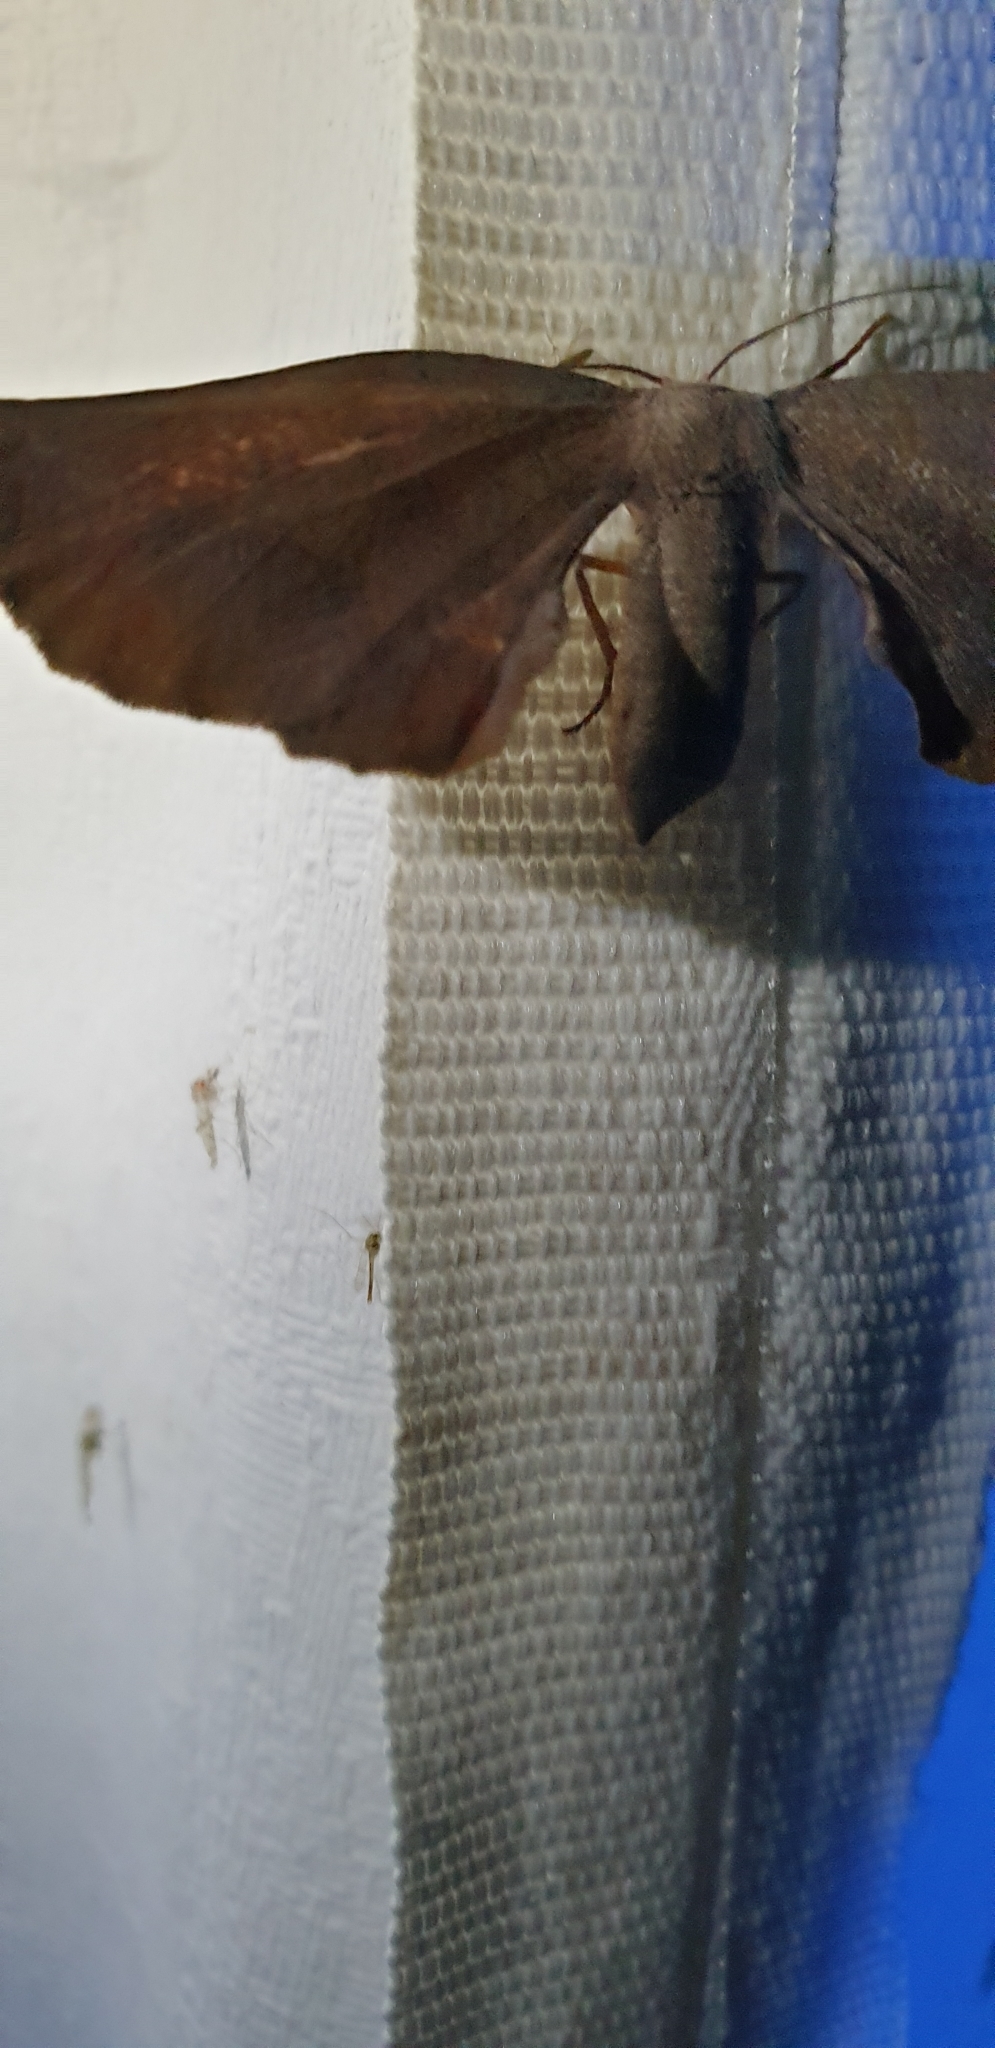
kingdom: Animalia
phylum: Arthropoda
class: Insecta
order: Lepidoptera
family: Geometridae
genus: Circopetes
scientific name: Circopetes obtusata
